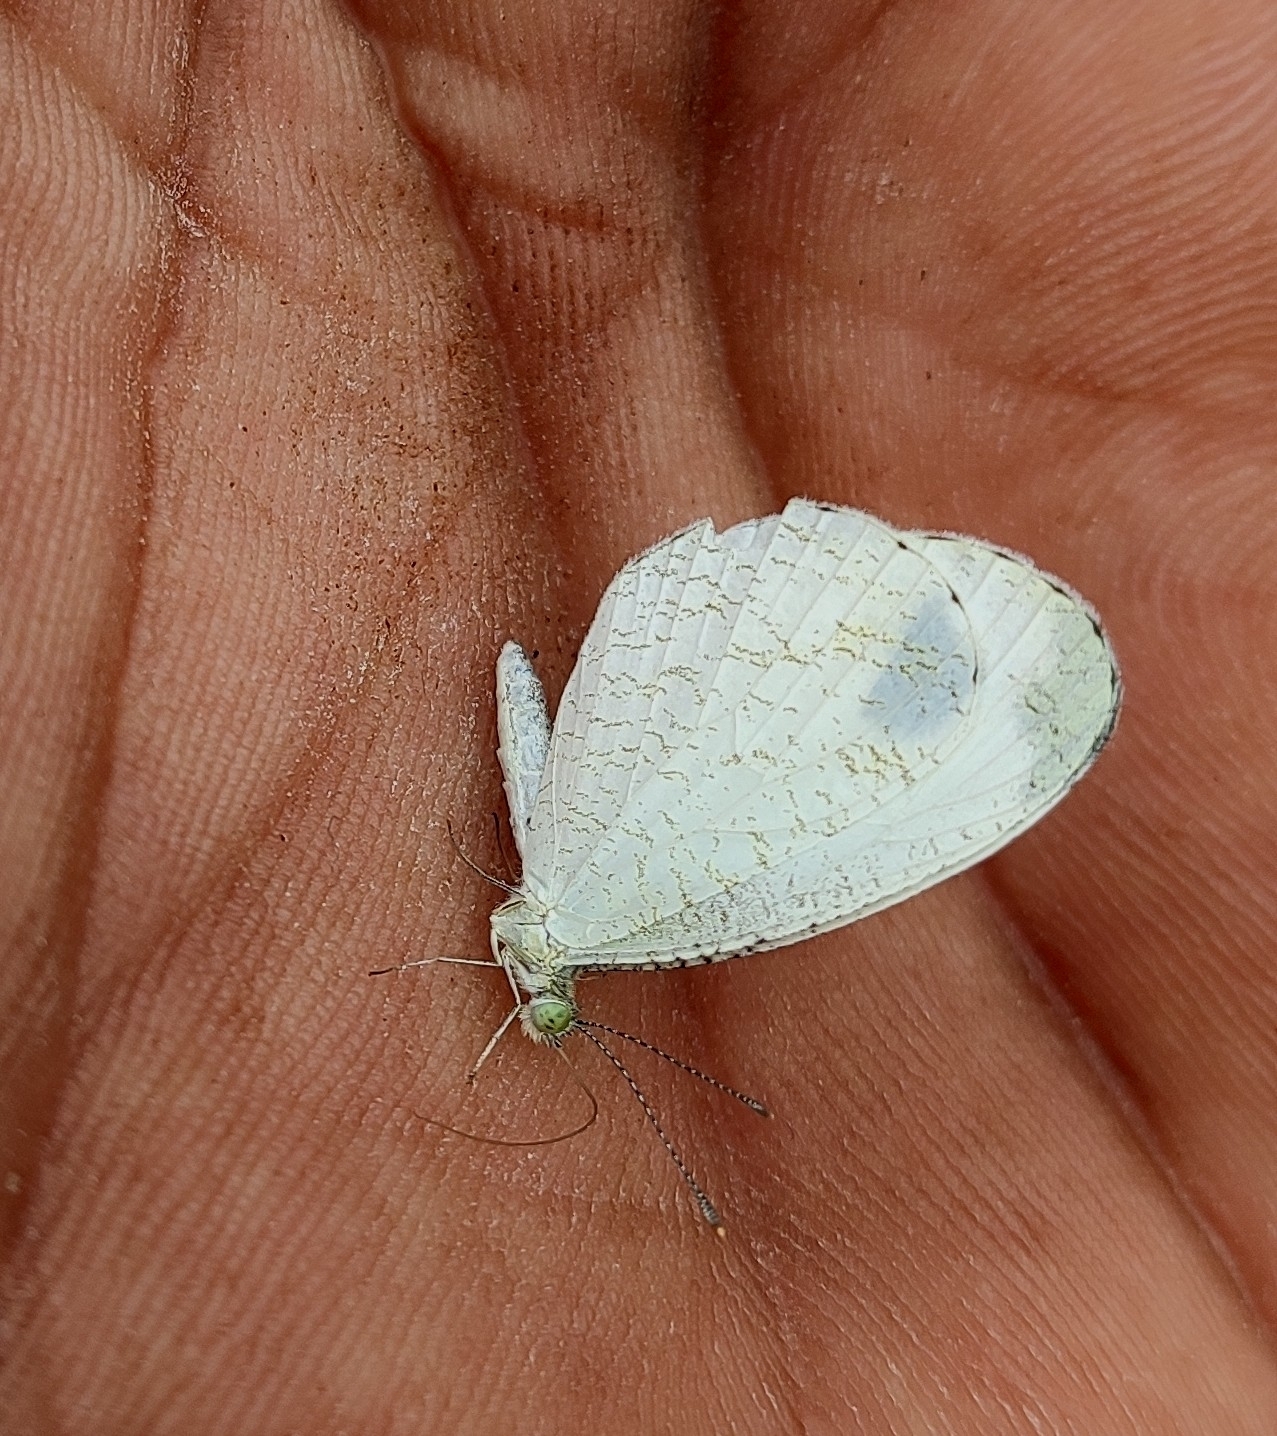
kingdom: Animalia
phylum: Arthropoda
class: Insecta
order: Lepidoptera
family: Pieridae
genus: Leptosia
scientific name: Leptosia nina
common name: Psyche
